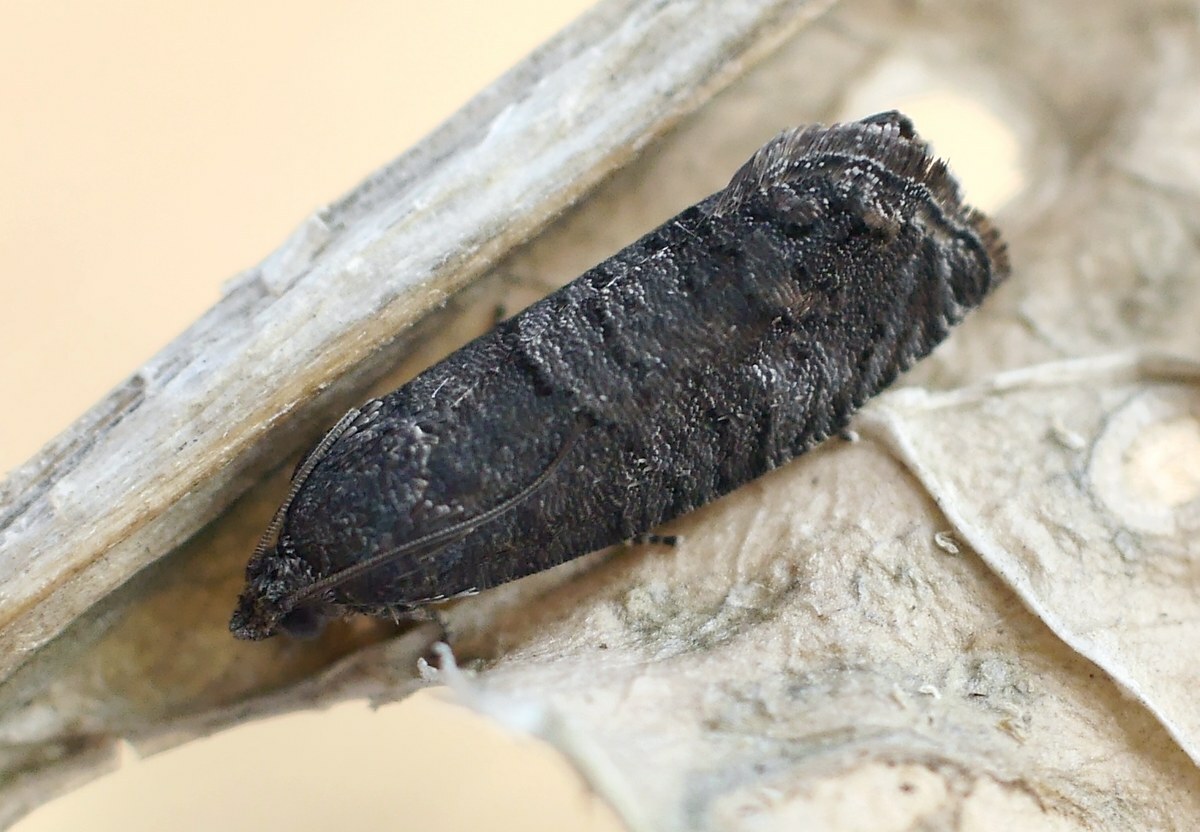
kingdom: Animalia
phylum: Arthropoda
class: Insecta
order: Lepidoptera
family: Tortricidae
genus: Cydia
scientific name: Cydia pyrivora
